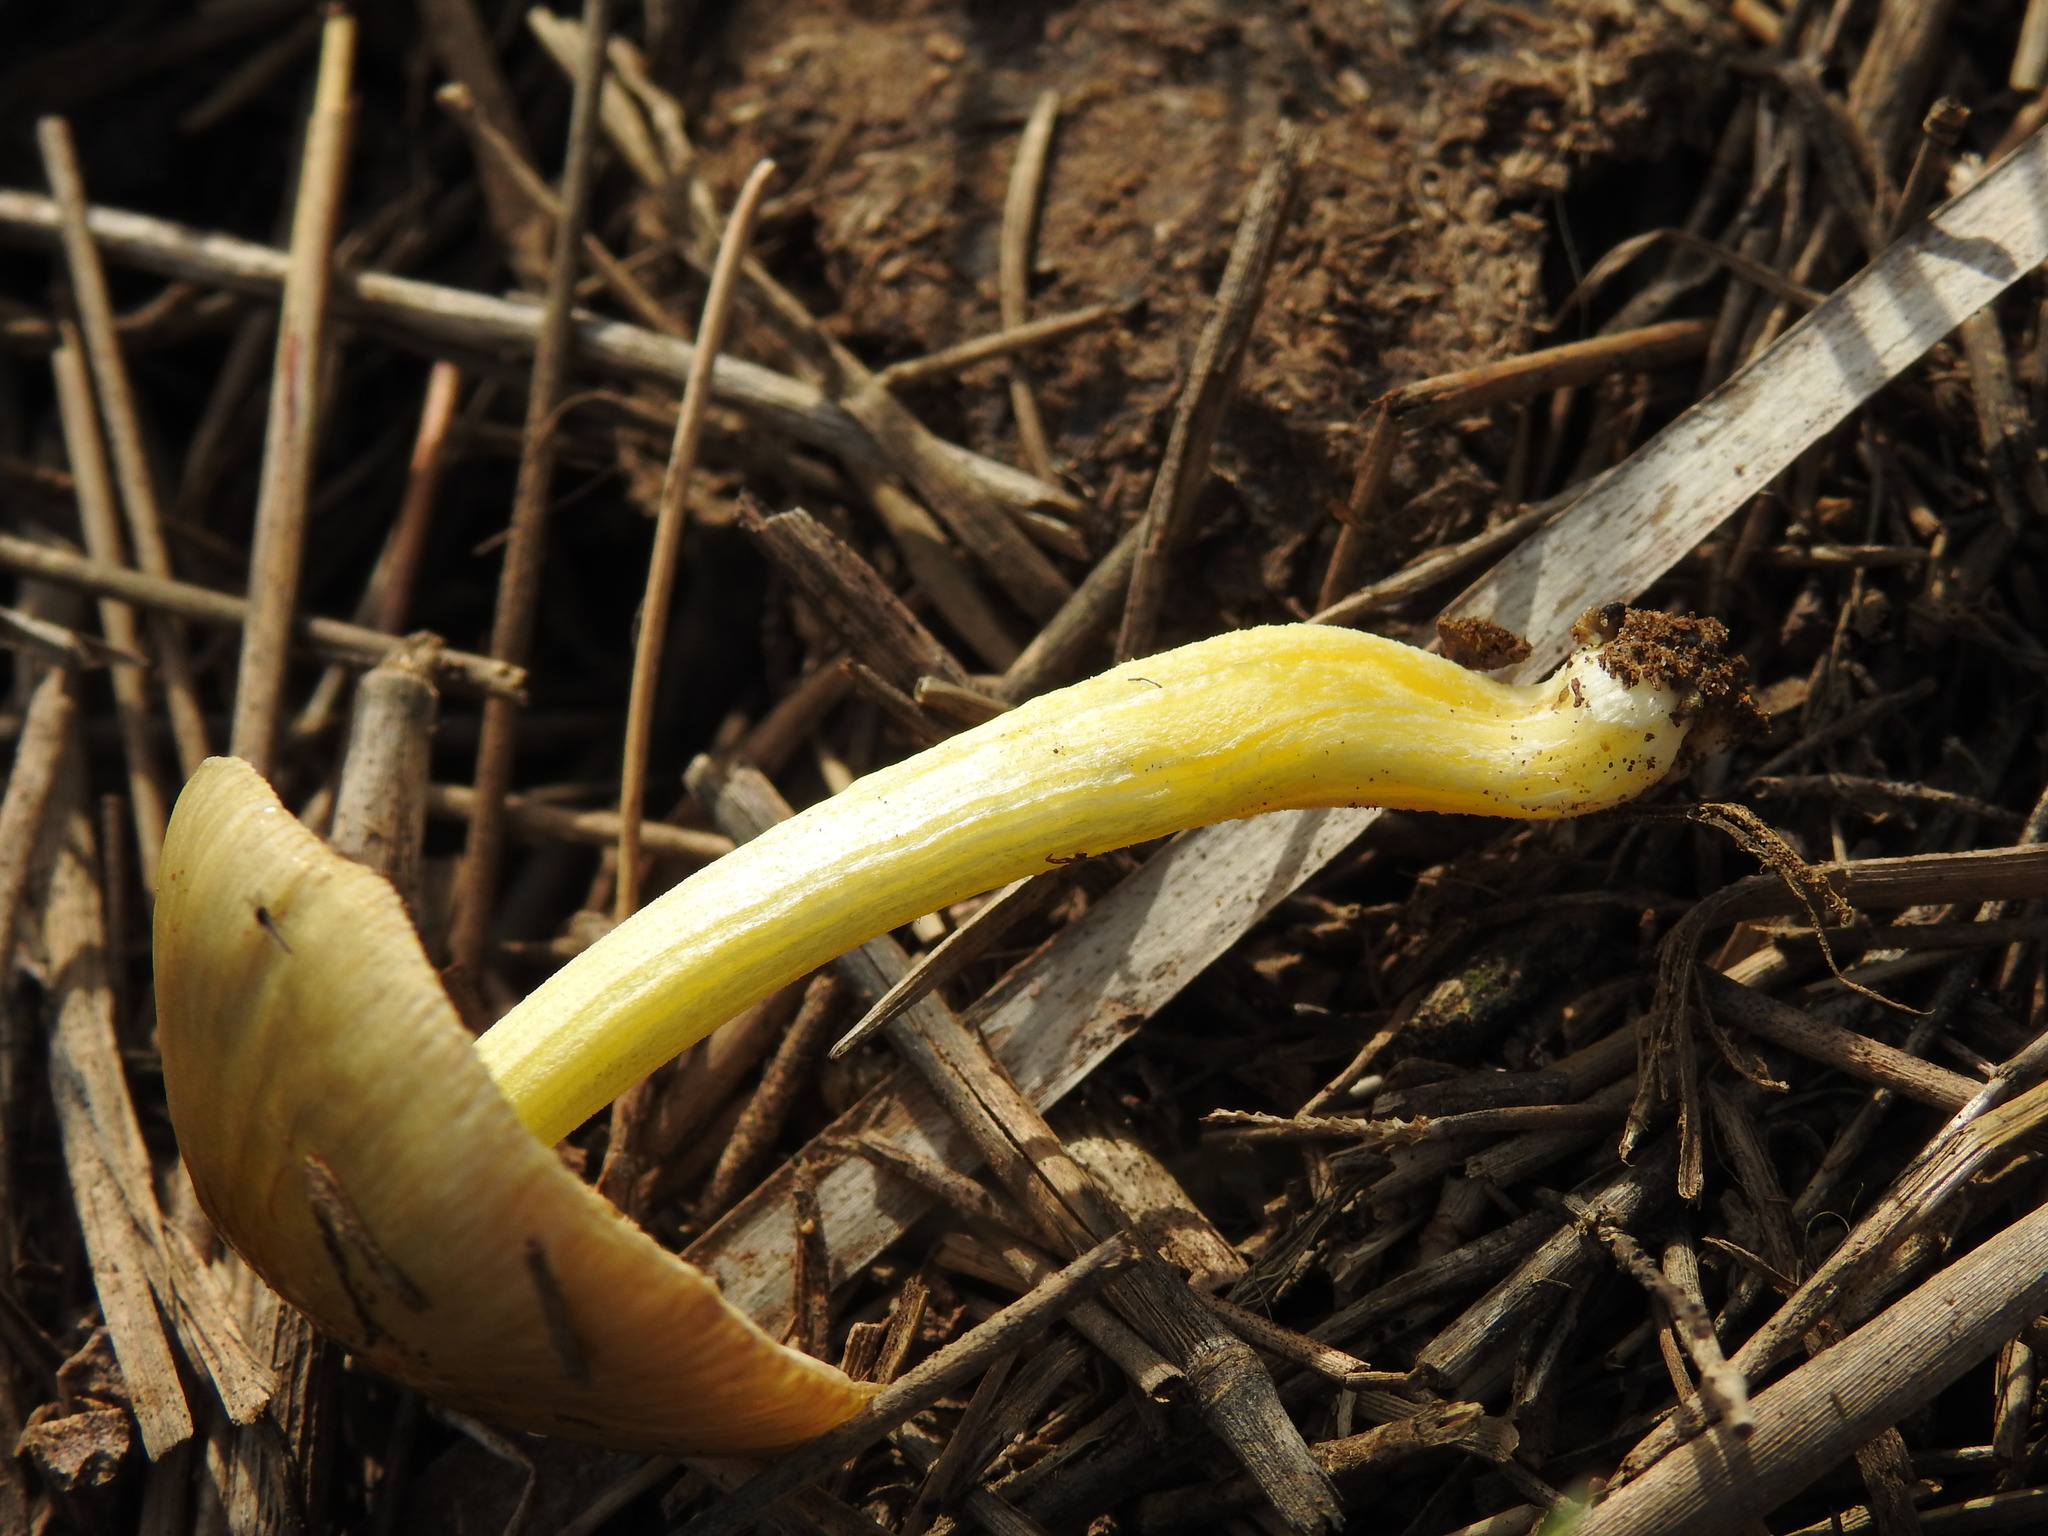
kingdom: Fungi
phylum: Basidiomycota
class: Agaricomycetes
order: Agaricales
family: Bolbitiaceae
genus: Bolbitius
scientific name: Bolbitius titubans
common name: Yellow fieldcap
